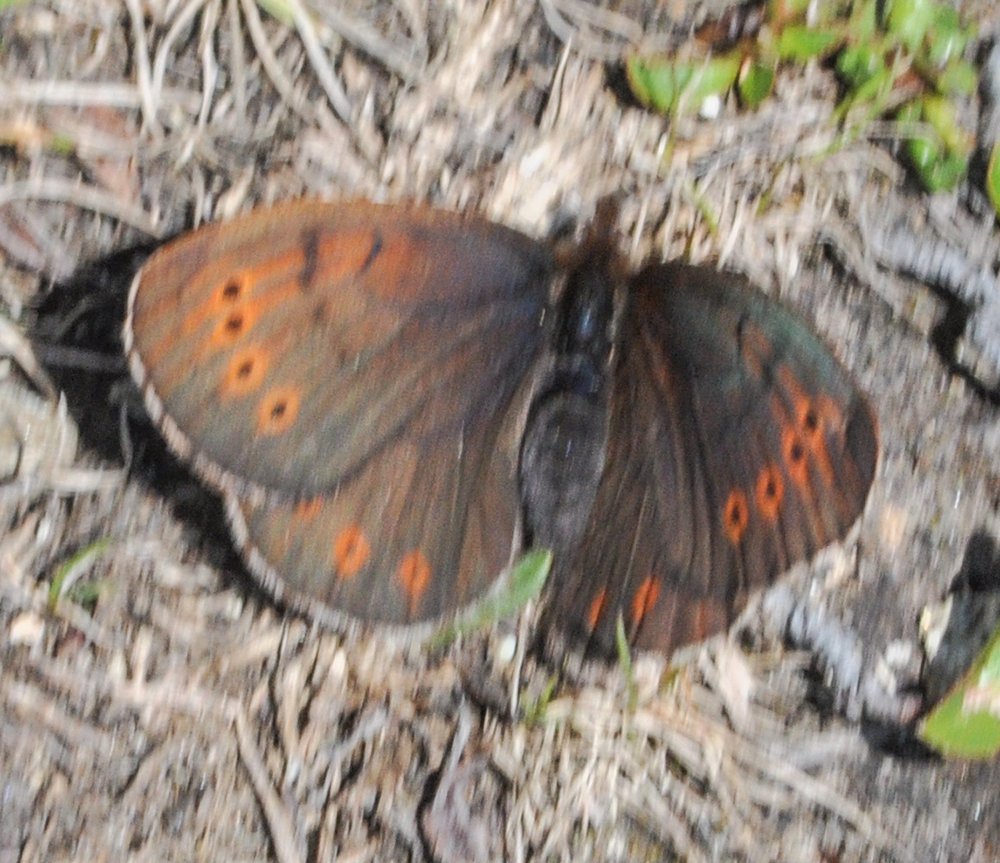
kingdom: Animalia
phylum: Arthropoda
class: Insecta
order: Lepidoptera
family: Nymphalidae
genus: Erebia
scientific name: Erebia pandrose
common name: Dewy ringlet
